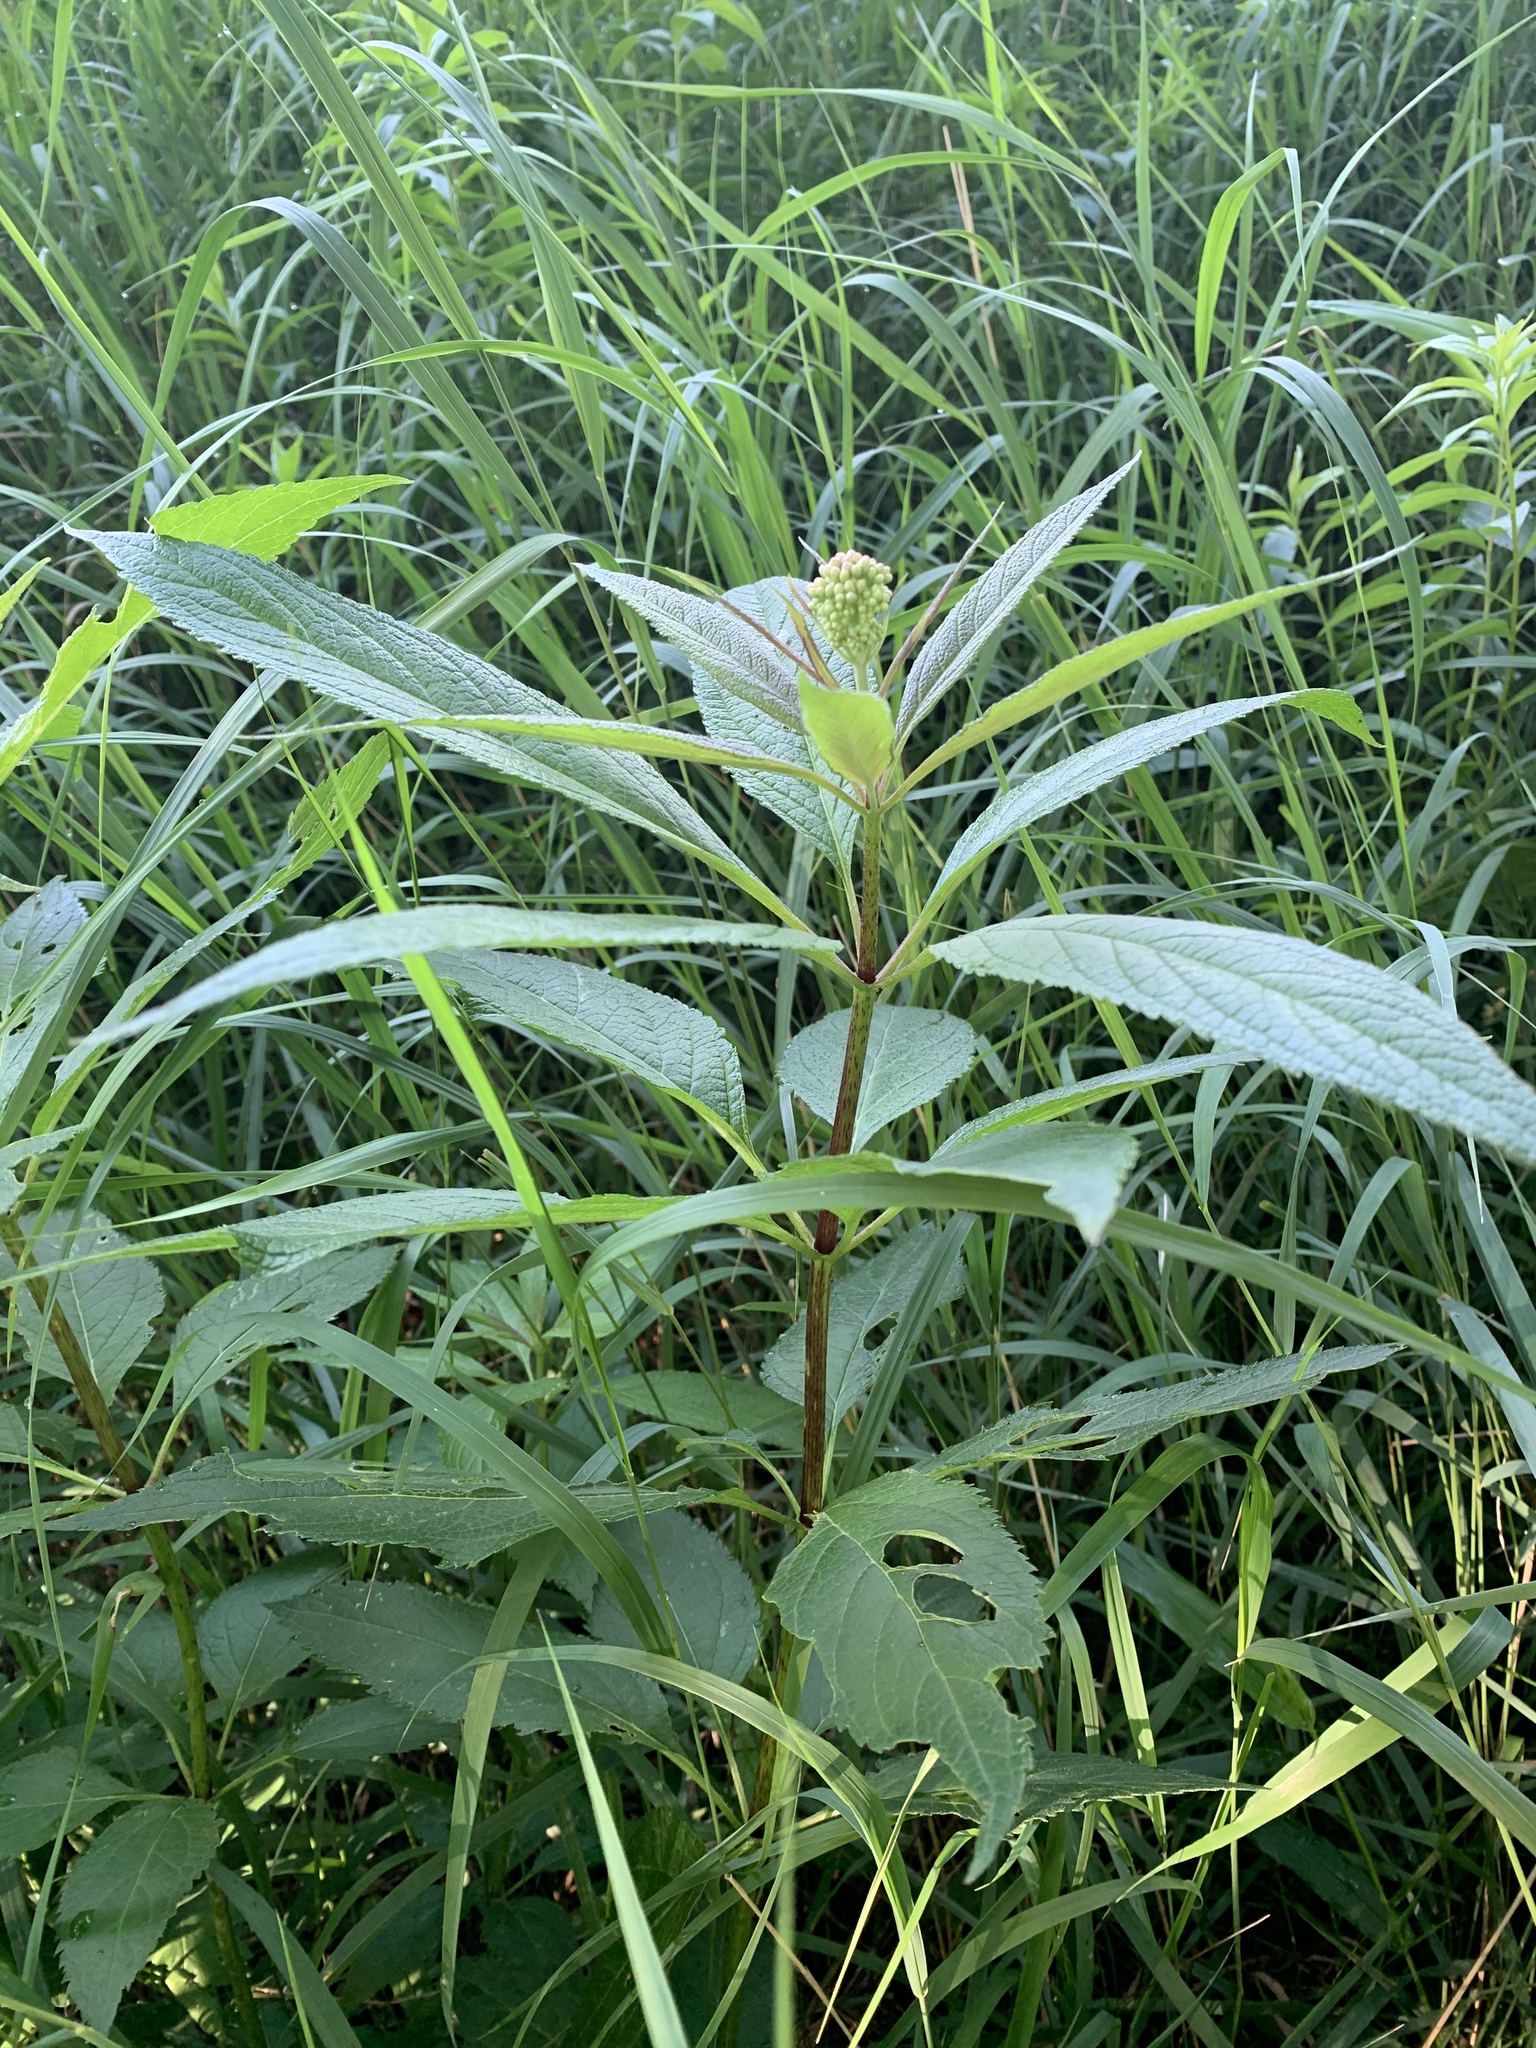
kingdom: Plantae
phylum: Tracheophyta
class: Magnoliopsida
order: Asterales
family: Asteraceae
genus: Eutrochium
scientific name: Eutrochium maculatum
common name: Spotted joe pye weed
